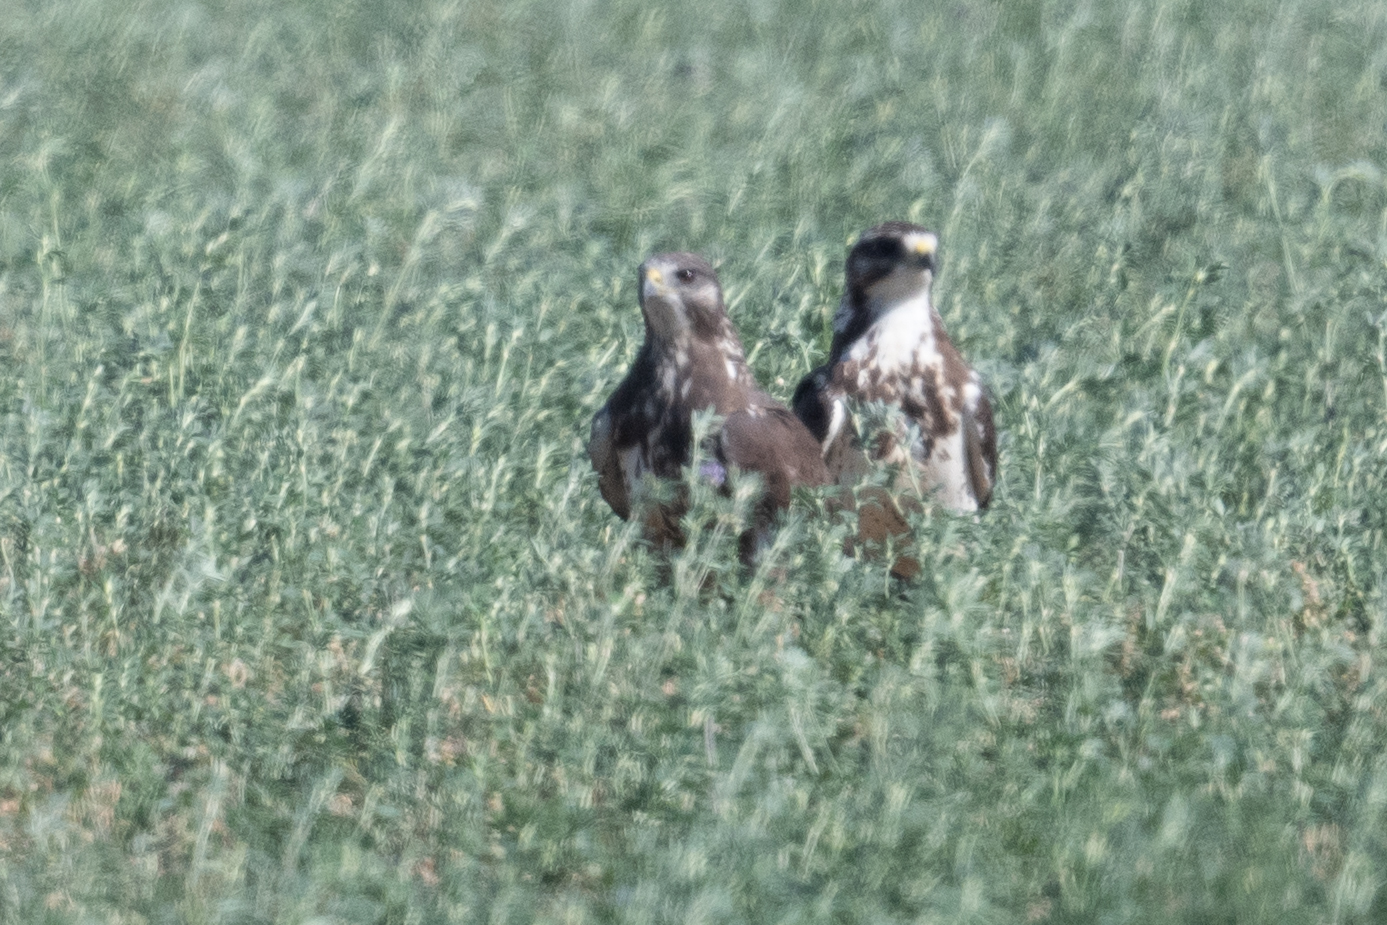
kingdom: Animalia
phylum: Chordata
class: Aves
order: Accipitriformes
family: Accipitridae
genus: Buteo
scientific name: Buteo swainsoni
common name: Swainson's hawk
